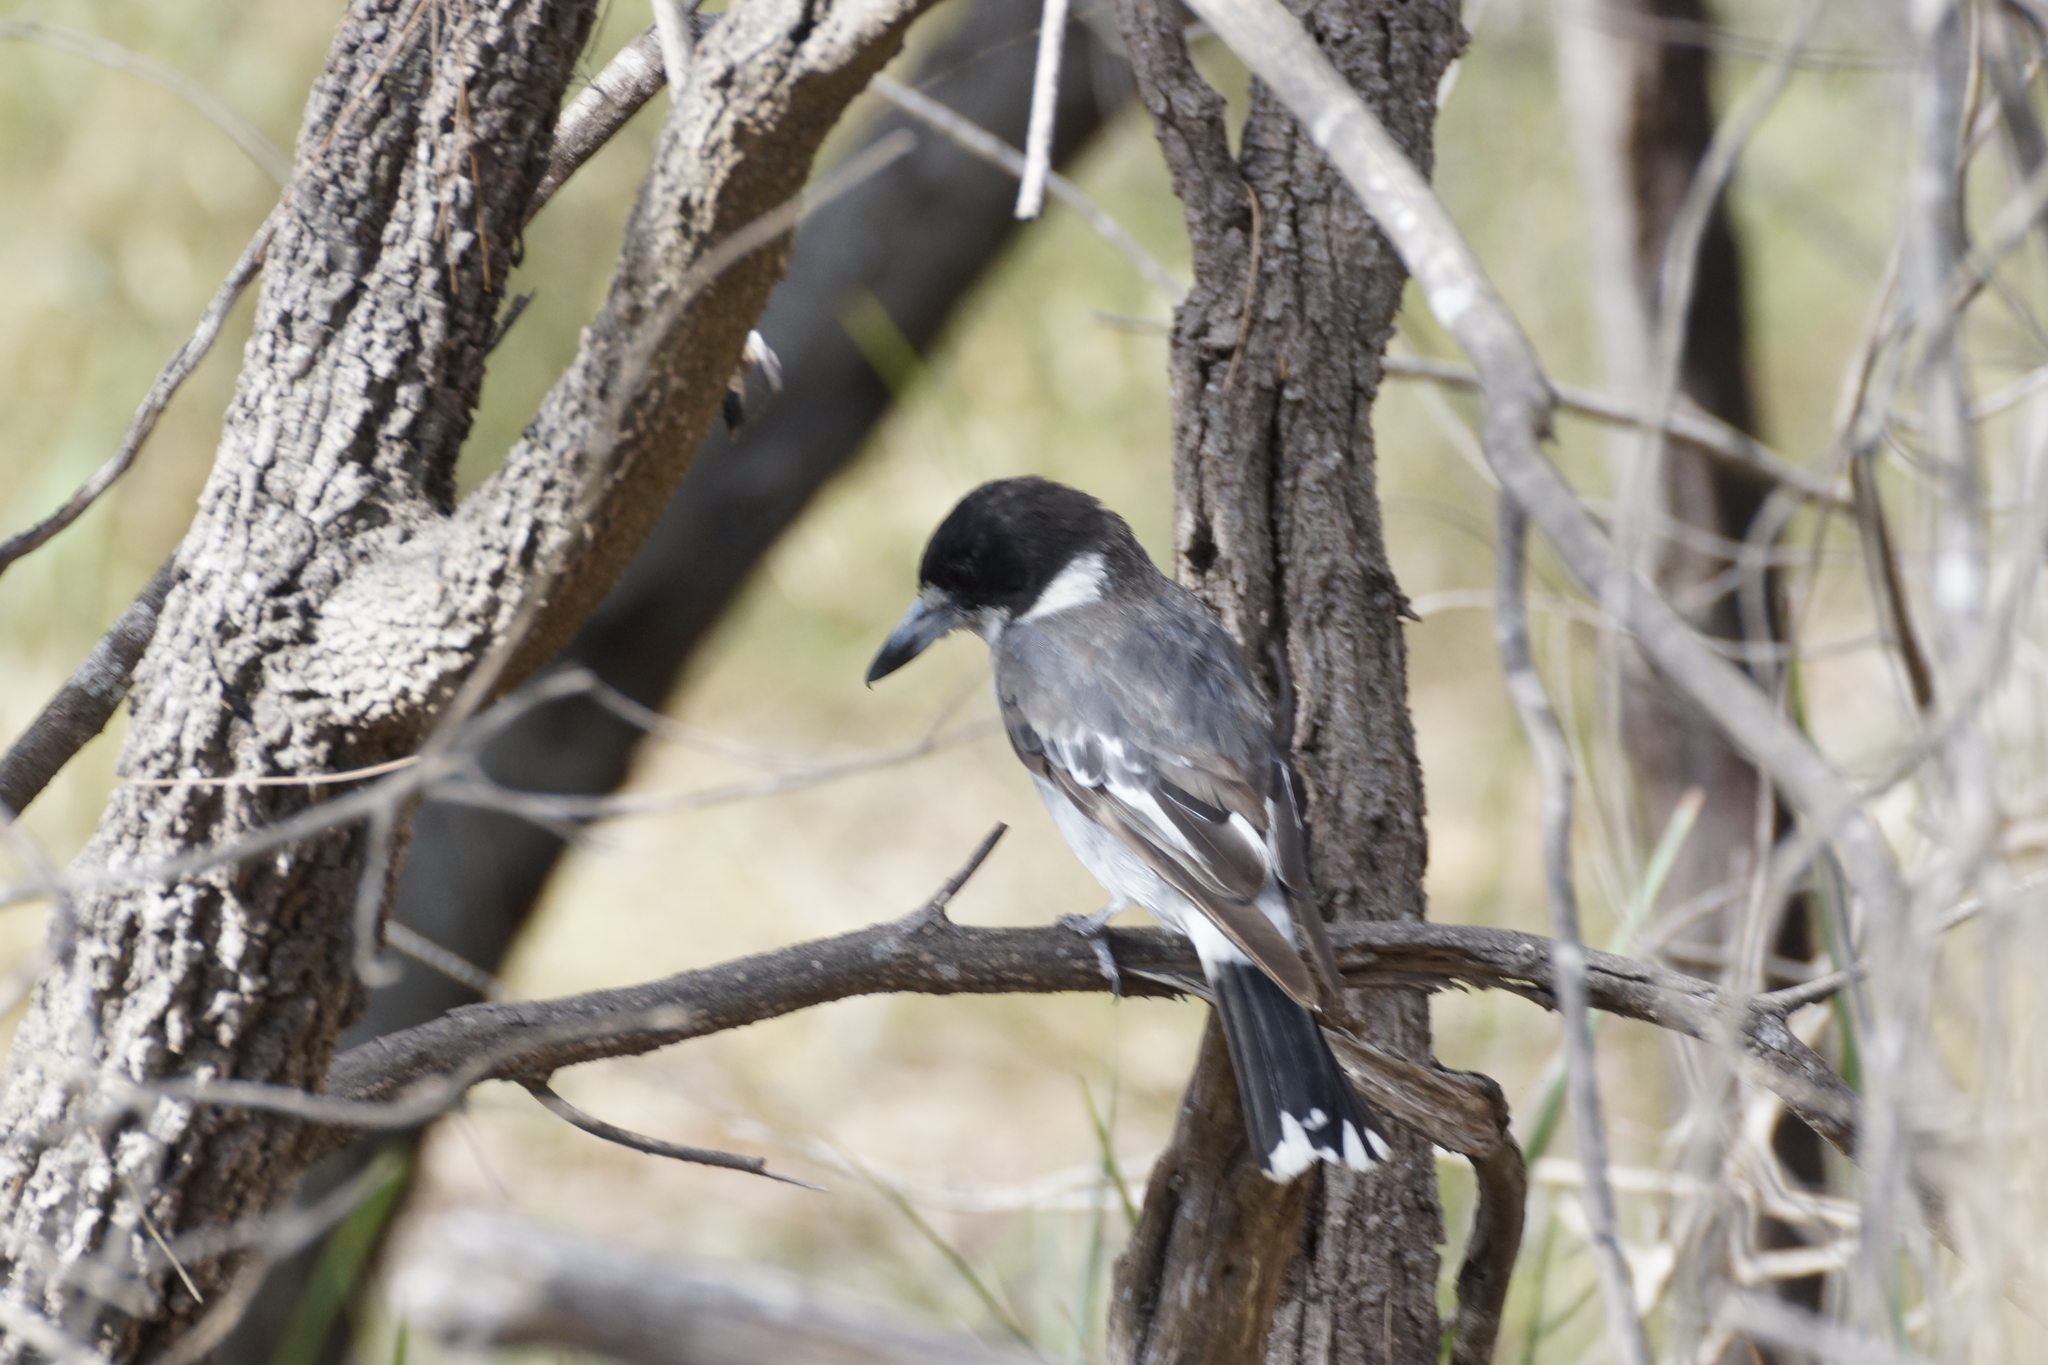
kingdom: Animalia
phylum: Chordata
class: Aves
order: Passeriformes
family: Cracticidae
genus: Cracticus
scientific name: Cracticus torquatus
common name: Grey butcherbird
